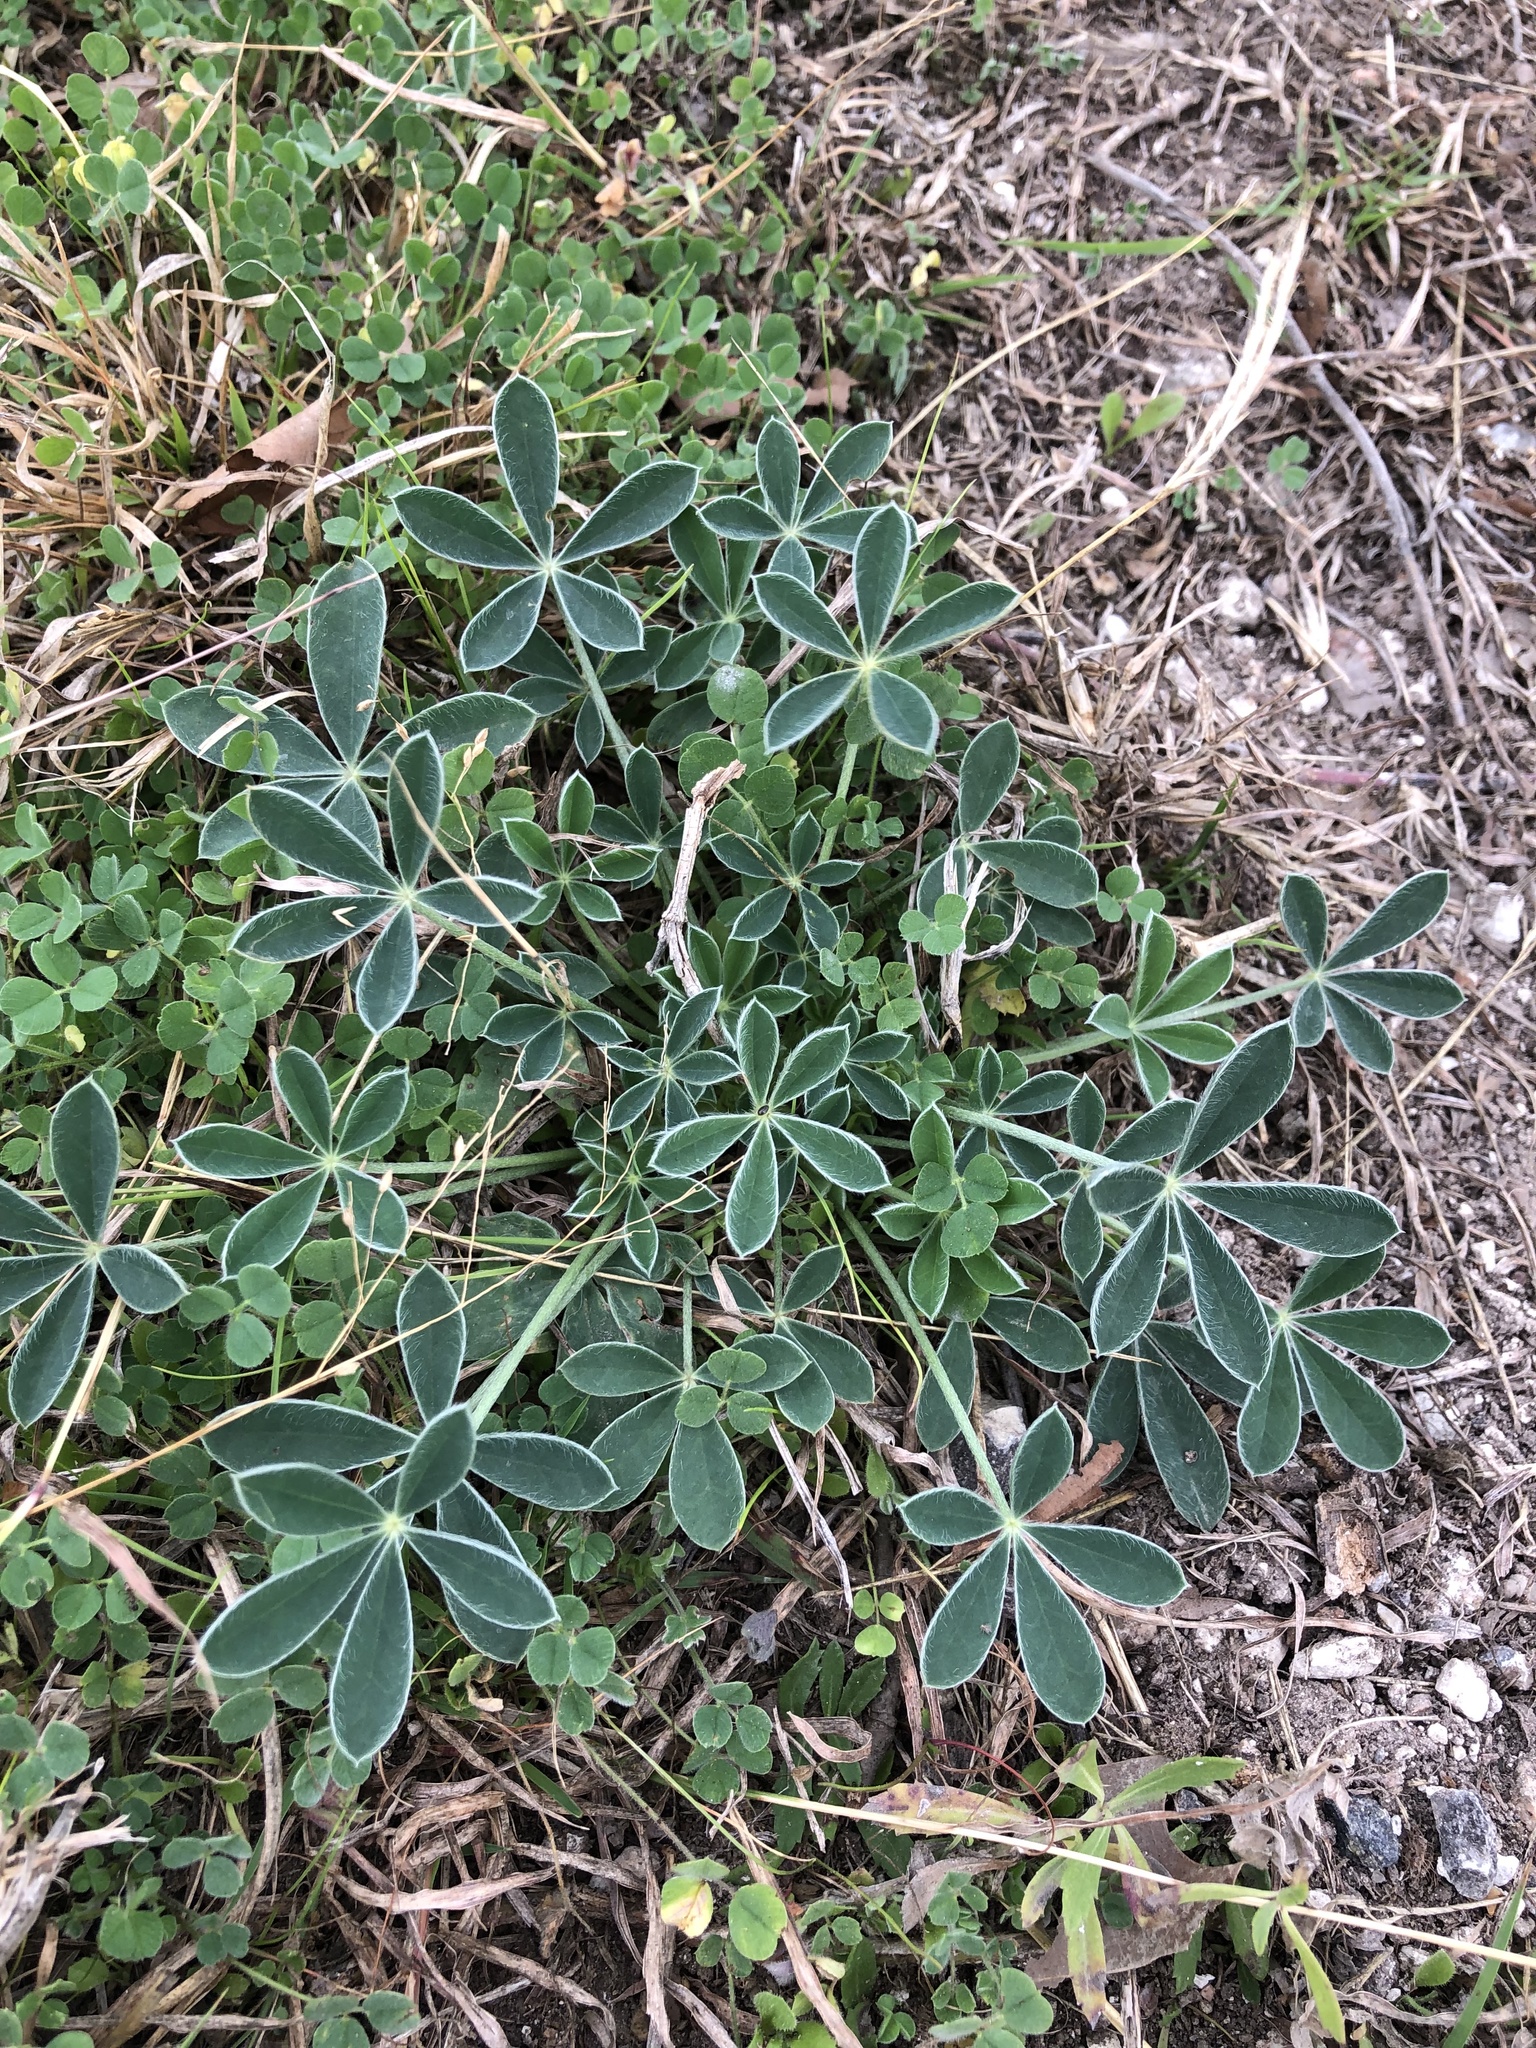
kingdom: Plantae
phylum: Tracheophyta
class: Magnoliopsida
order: Fabales
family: Fabaceae
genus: Lupinus
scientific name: Lupinus texensis
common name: Texas bluebonnet
